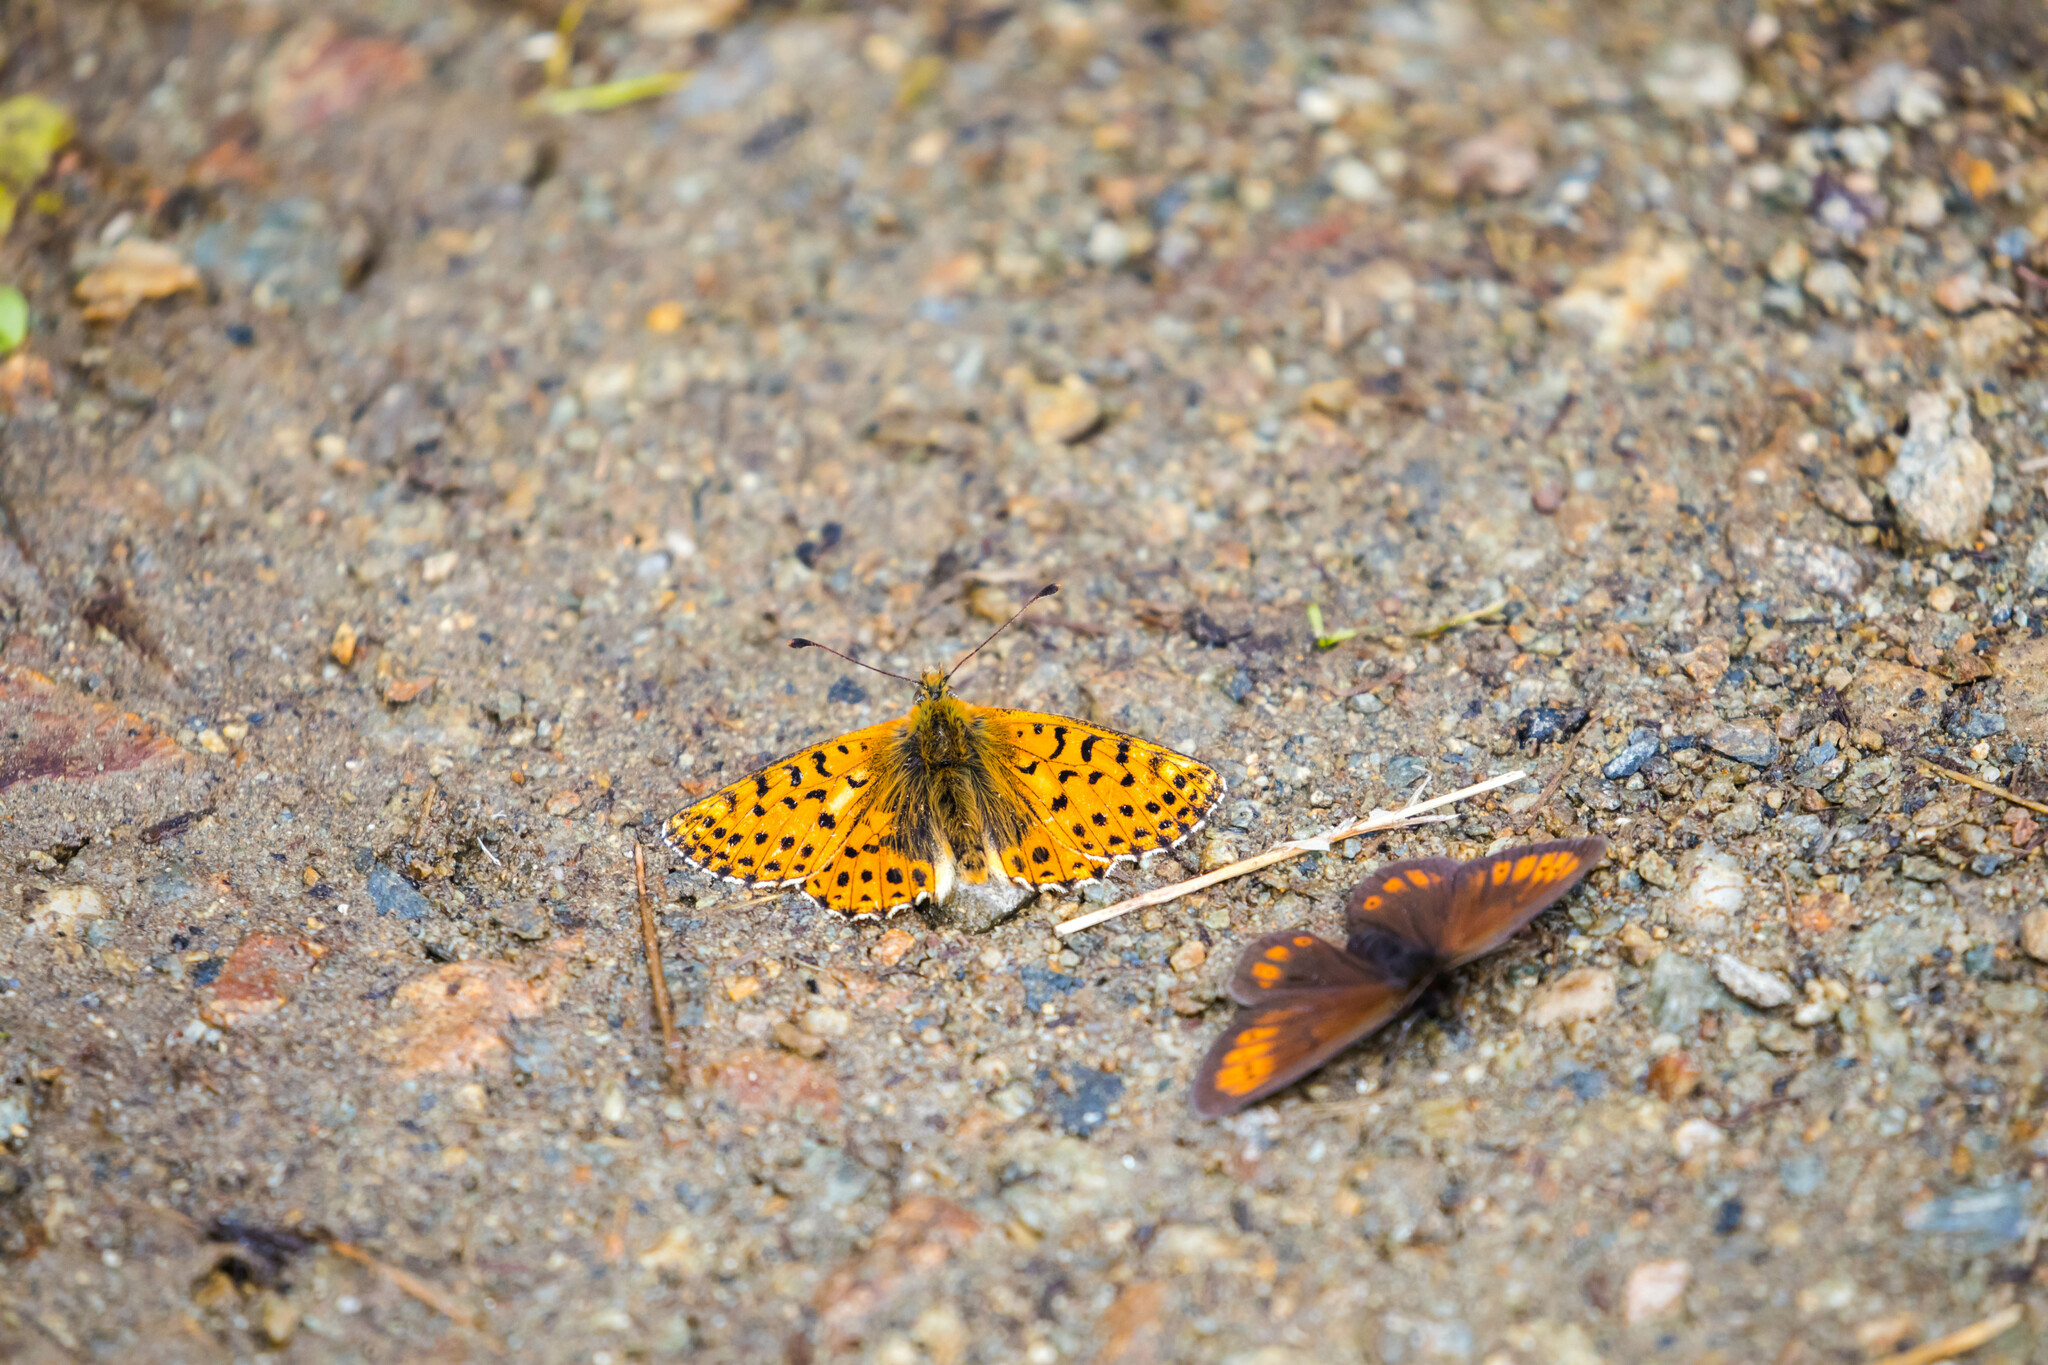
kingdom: Animalia
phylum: Arthropoda
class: Insecta
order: Lepidoptera
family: Nymphalidae
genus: Boloria
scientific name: Boloria graeca
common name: Balkan fritillary
